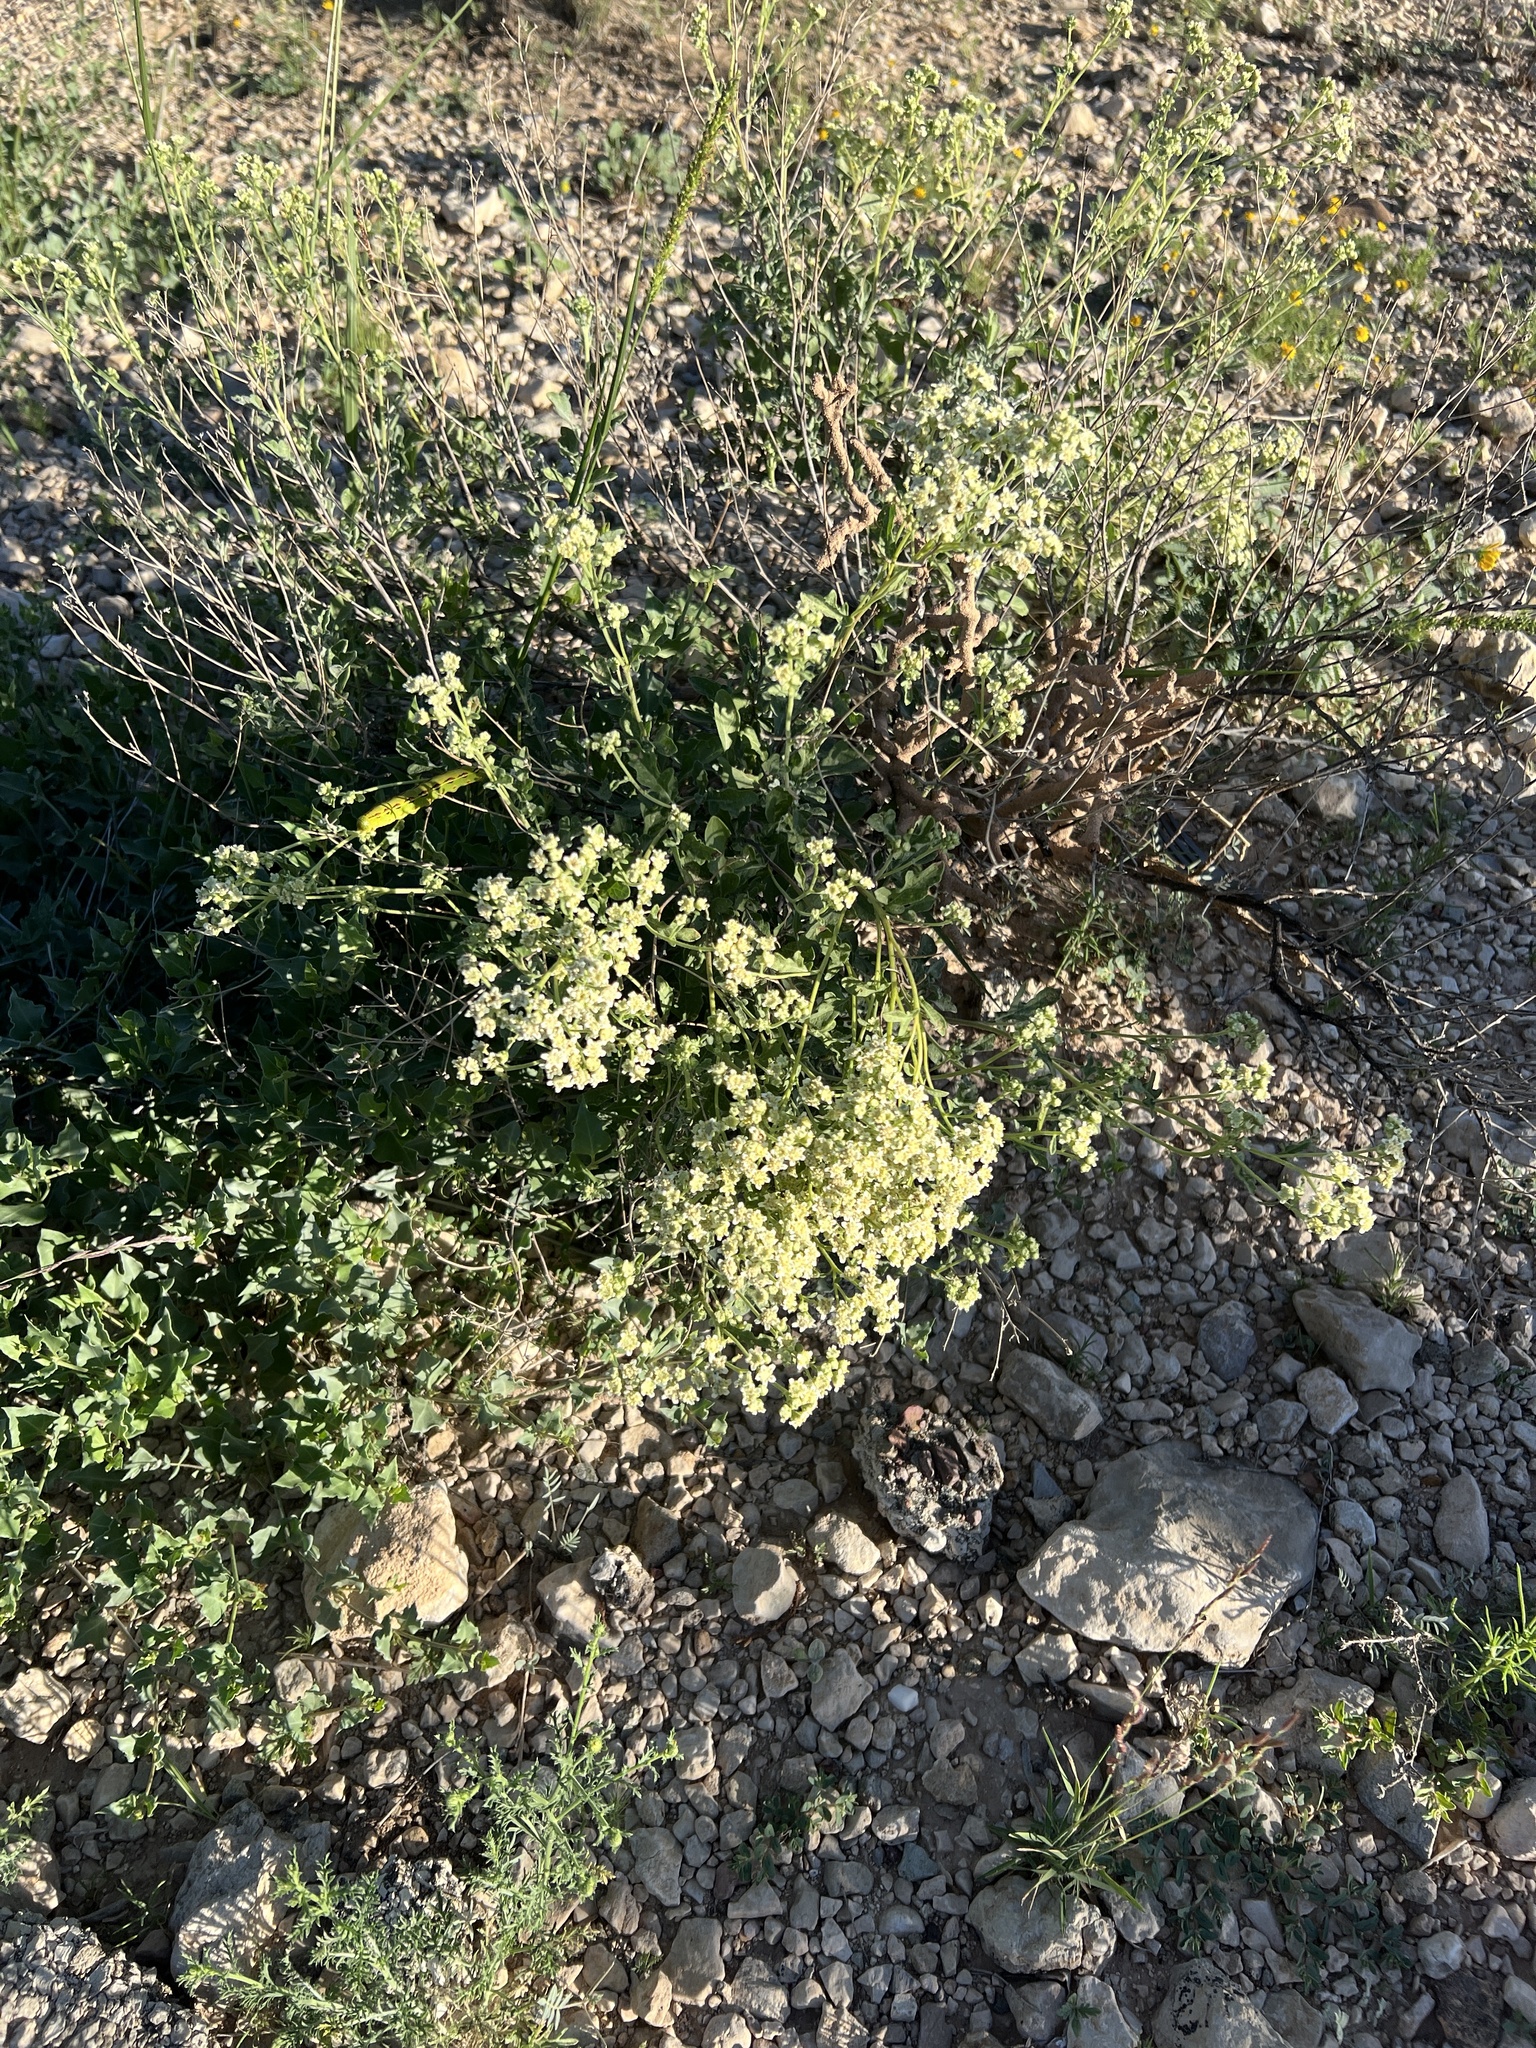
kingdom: Plantae
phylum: Tracheophyta
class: Magnoliopsida
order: Asterales
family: Asteraceae
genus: Parthenium
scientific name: Parthenium incanum
